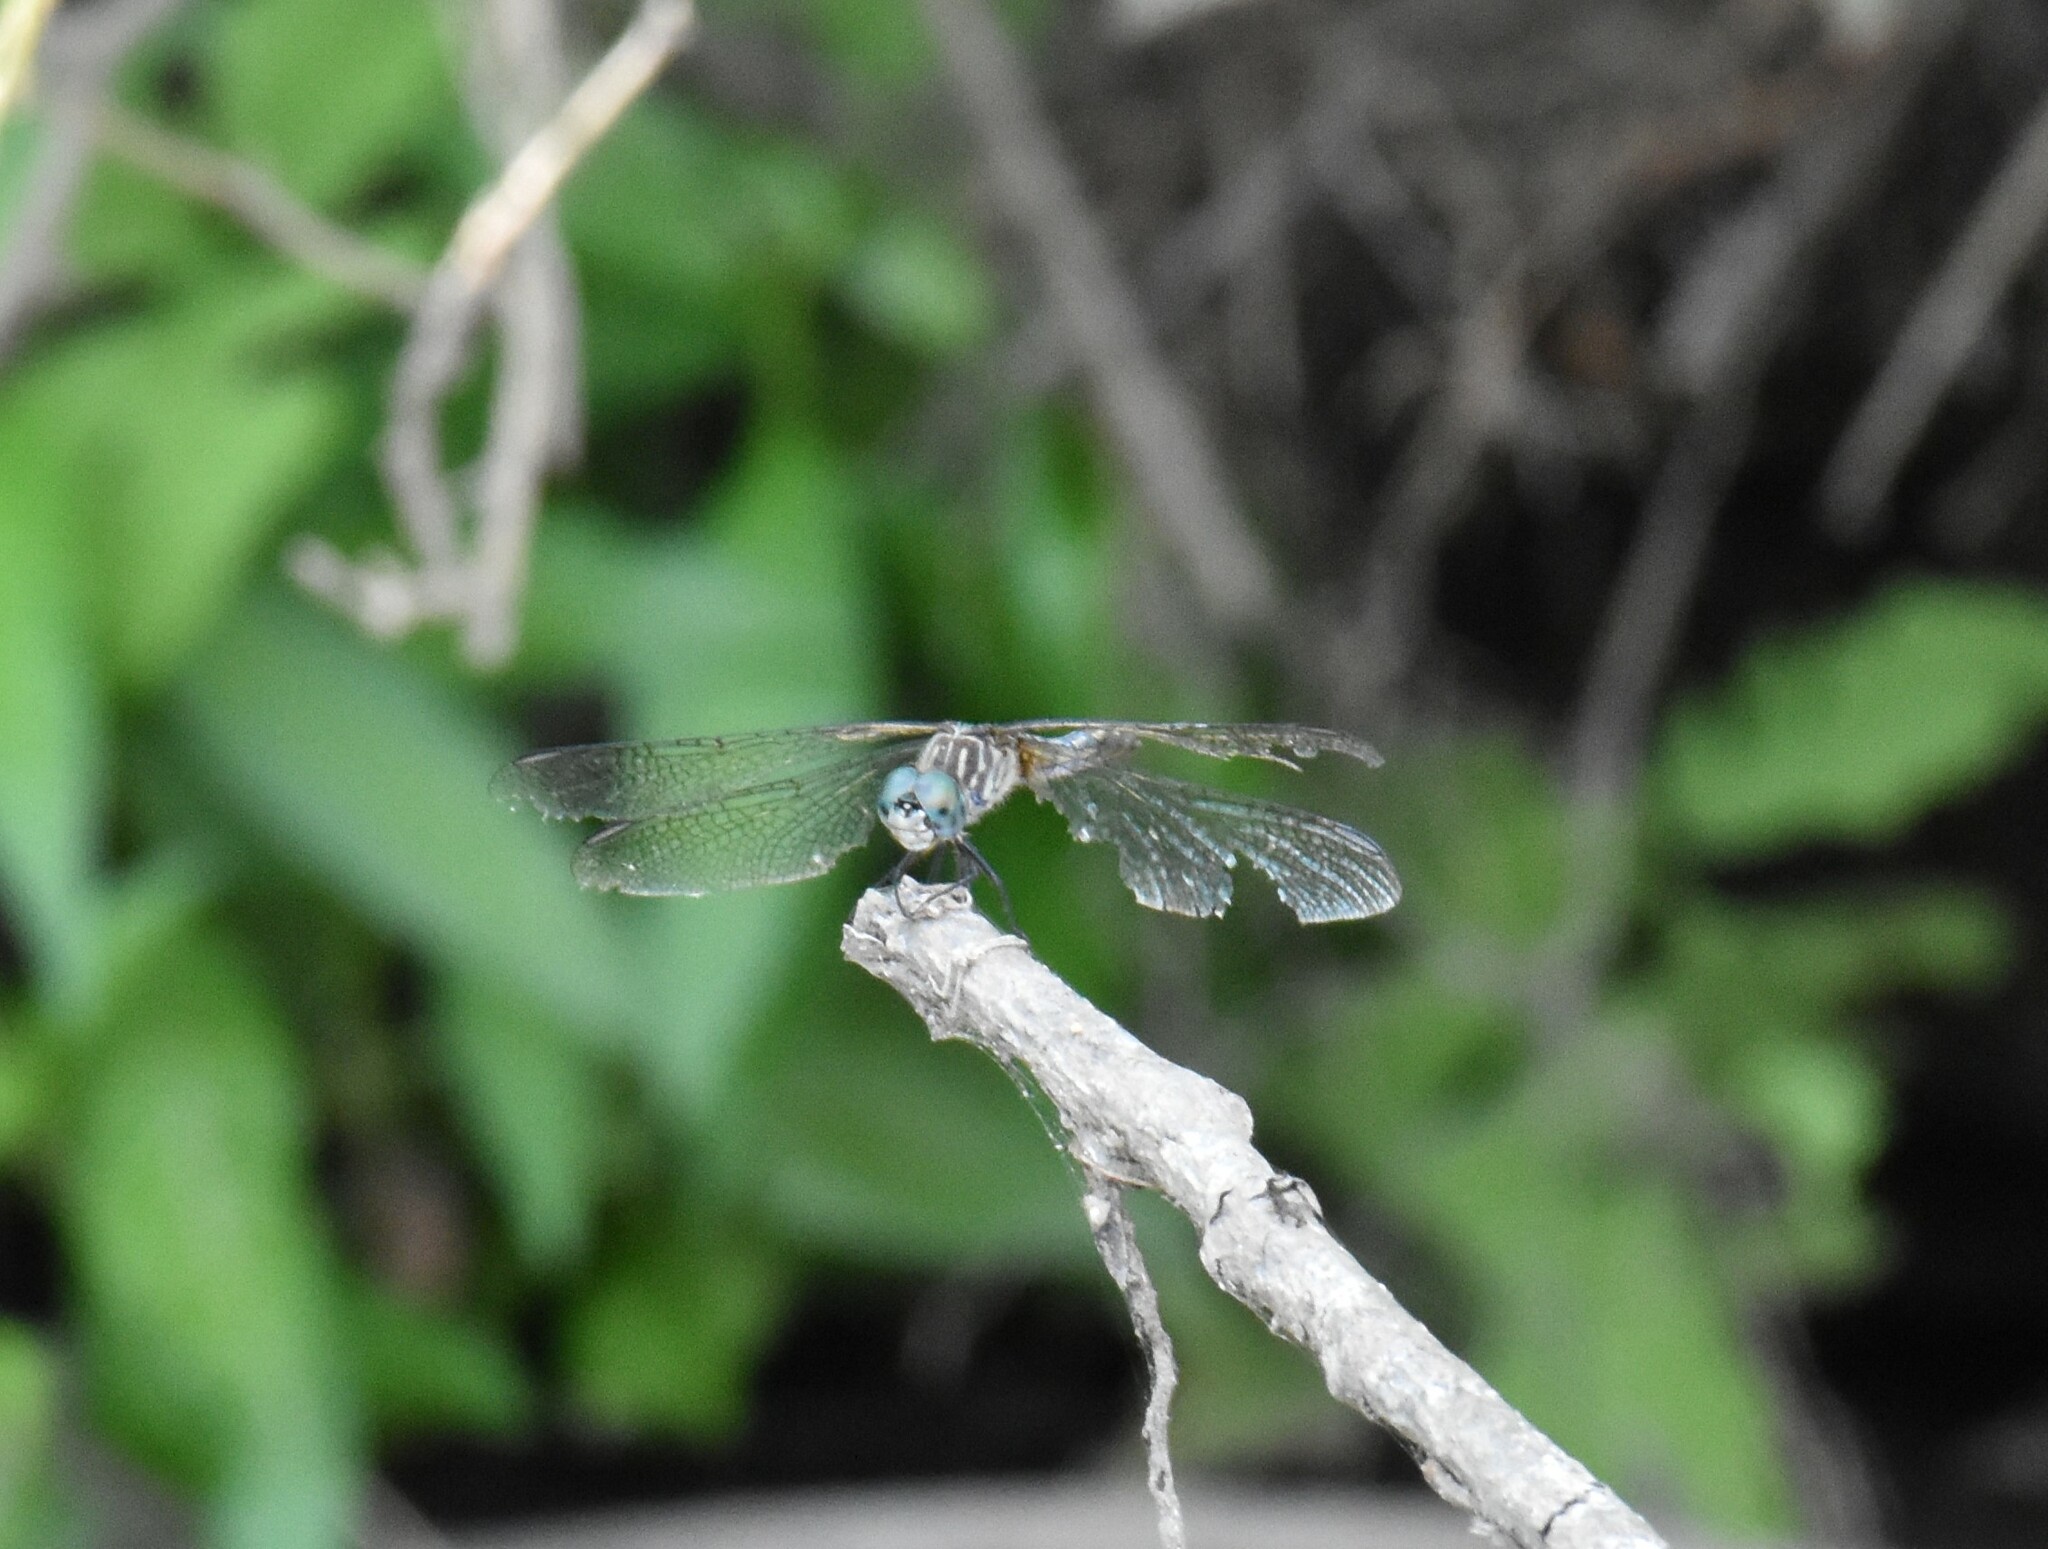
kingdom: Animalia
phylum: Arthropoda
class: Insecta
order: Odonata
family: Libellulidae
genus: Pachydiplax
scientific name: Pachydiplax longipennis
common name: Blue dasher
